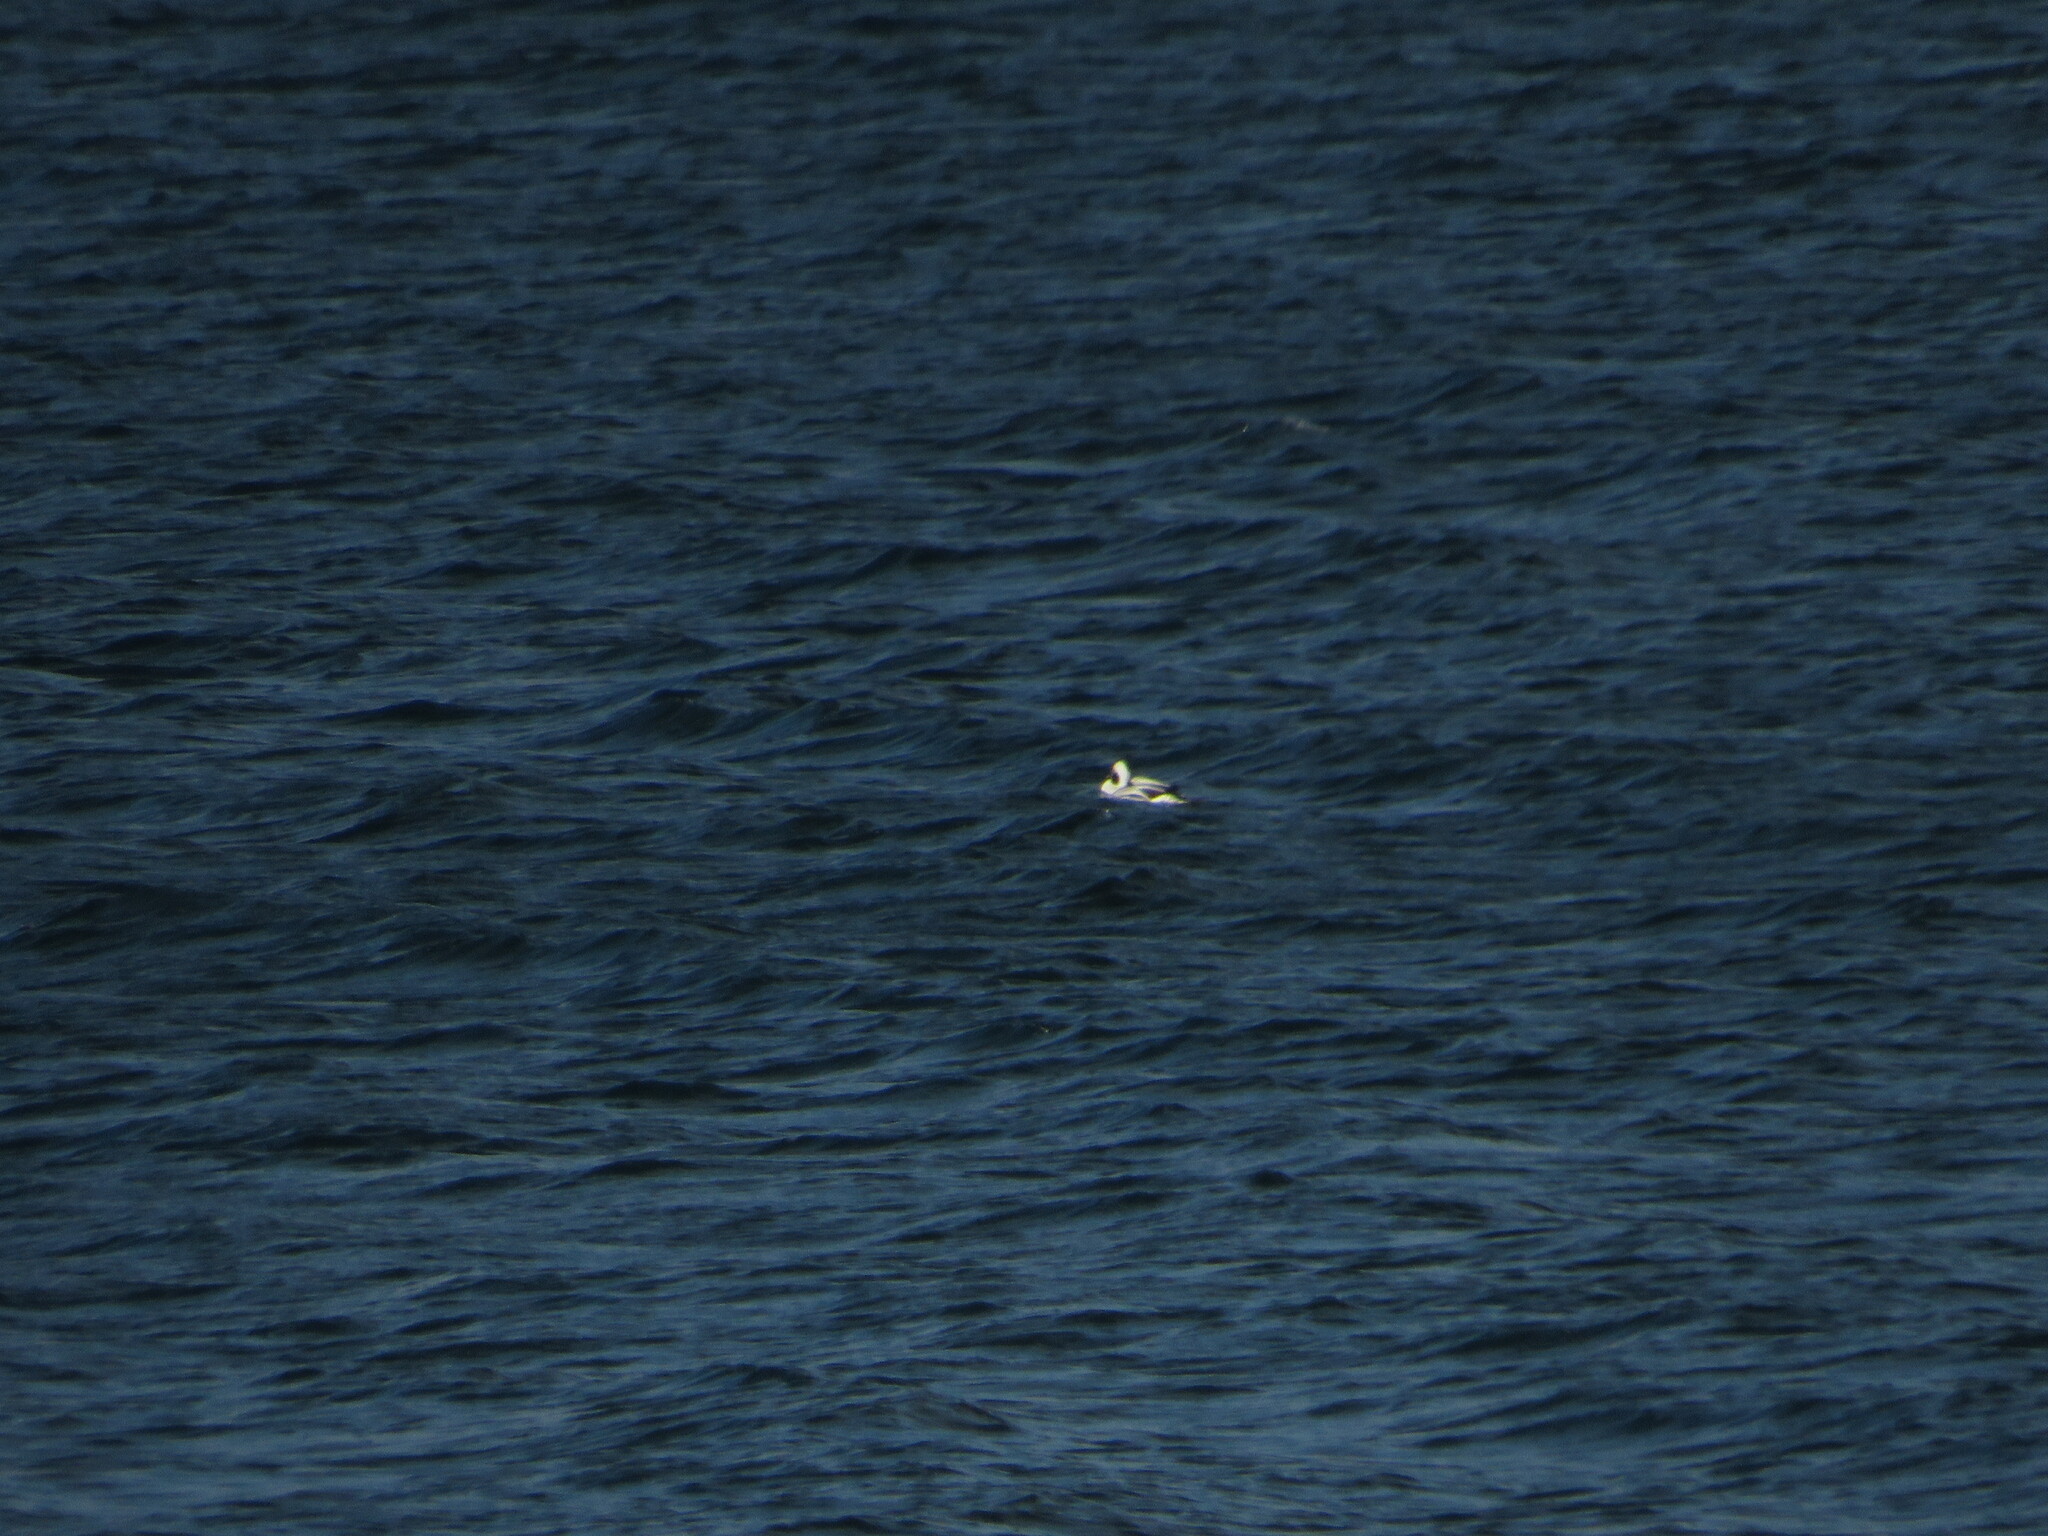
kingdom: Animalia
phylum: Chordata
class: Aves
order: Anseriformes
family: Anatidae
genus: Clangula
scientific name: Clangula hyemalis
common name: Long-tailed duck
